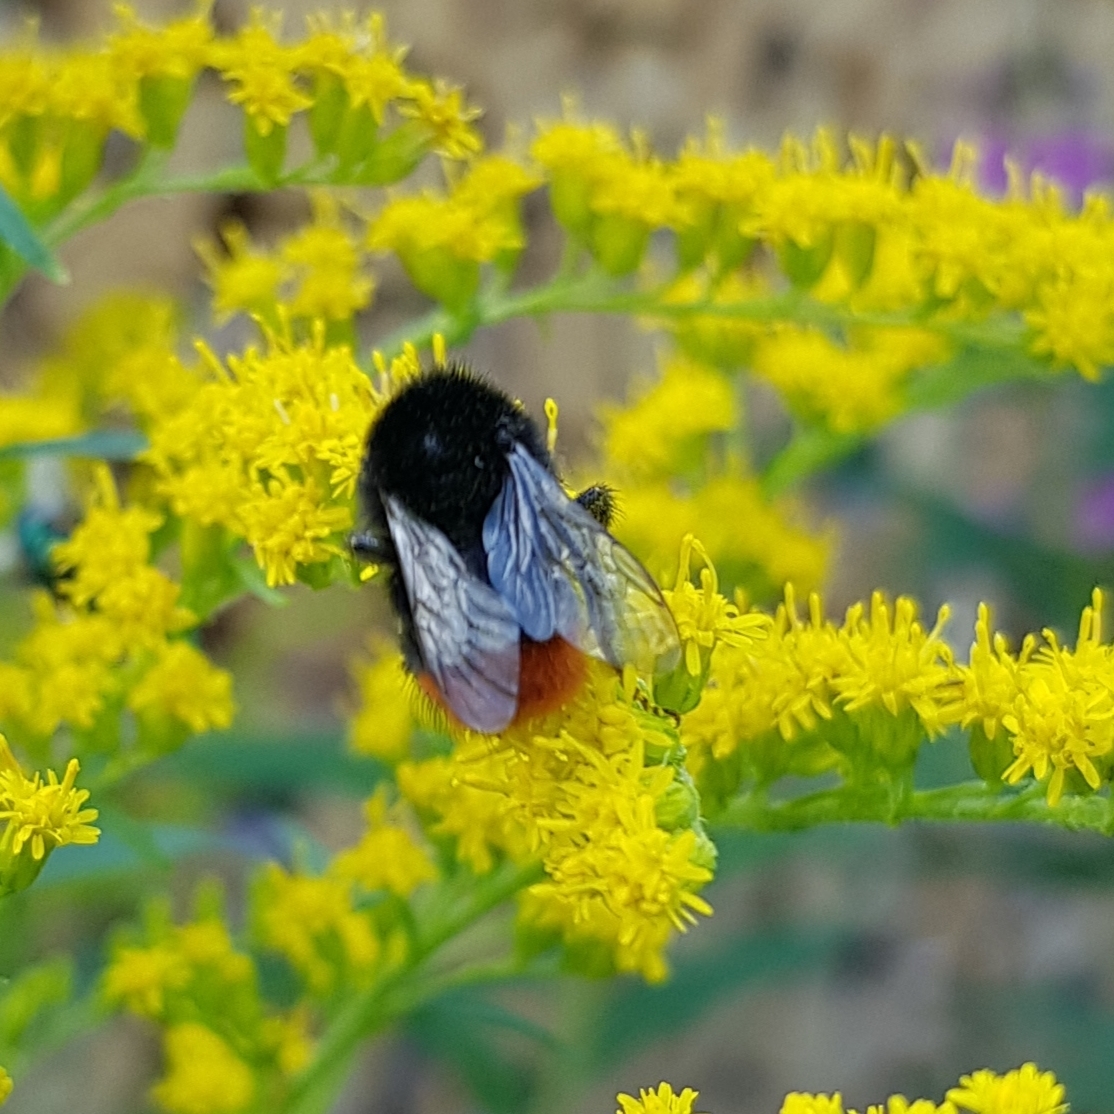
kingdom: Animalia
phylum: Arthropoda
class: Insecta
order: Hymenoptera
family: Apidae
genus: Bombus
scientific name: Bombus lapidarius
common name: Large red-tailed humble-bee
